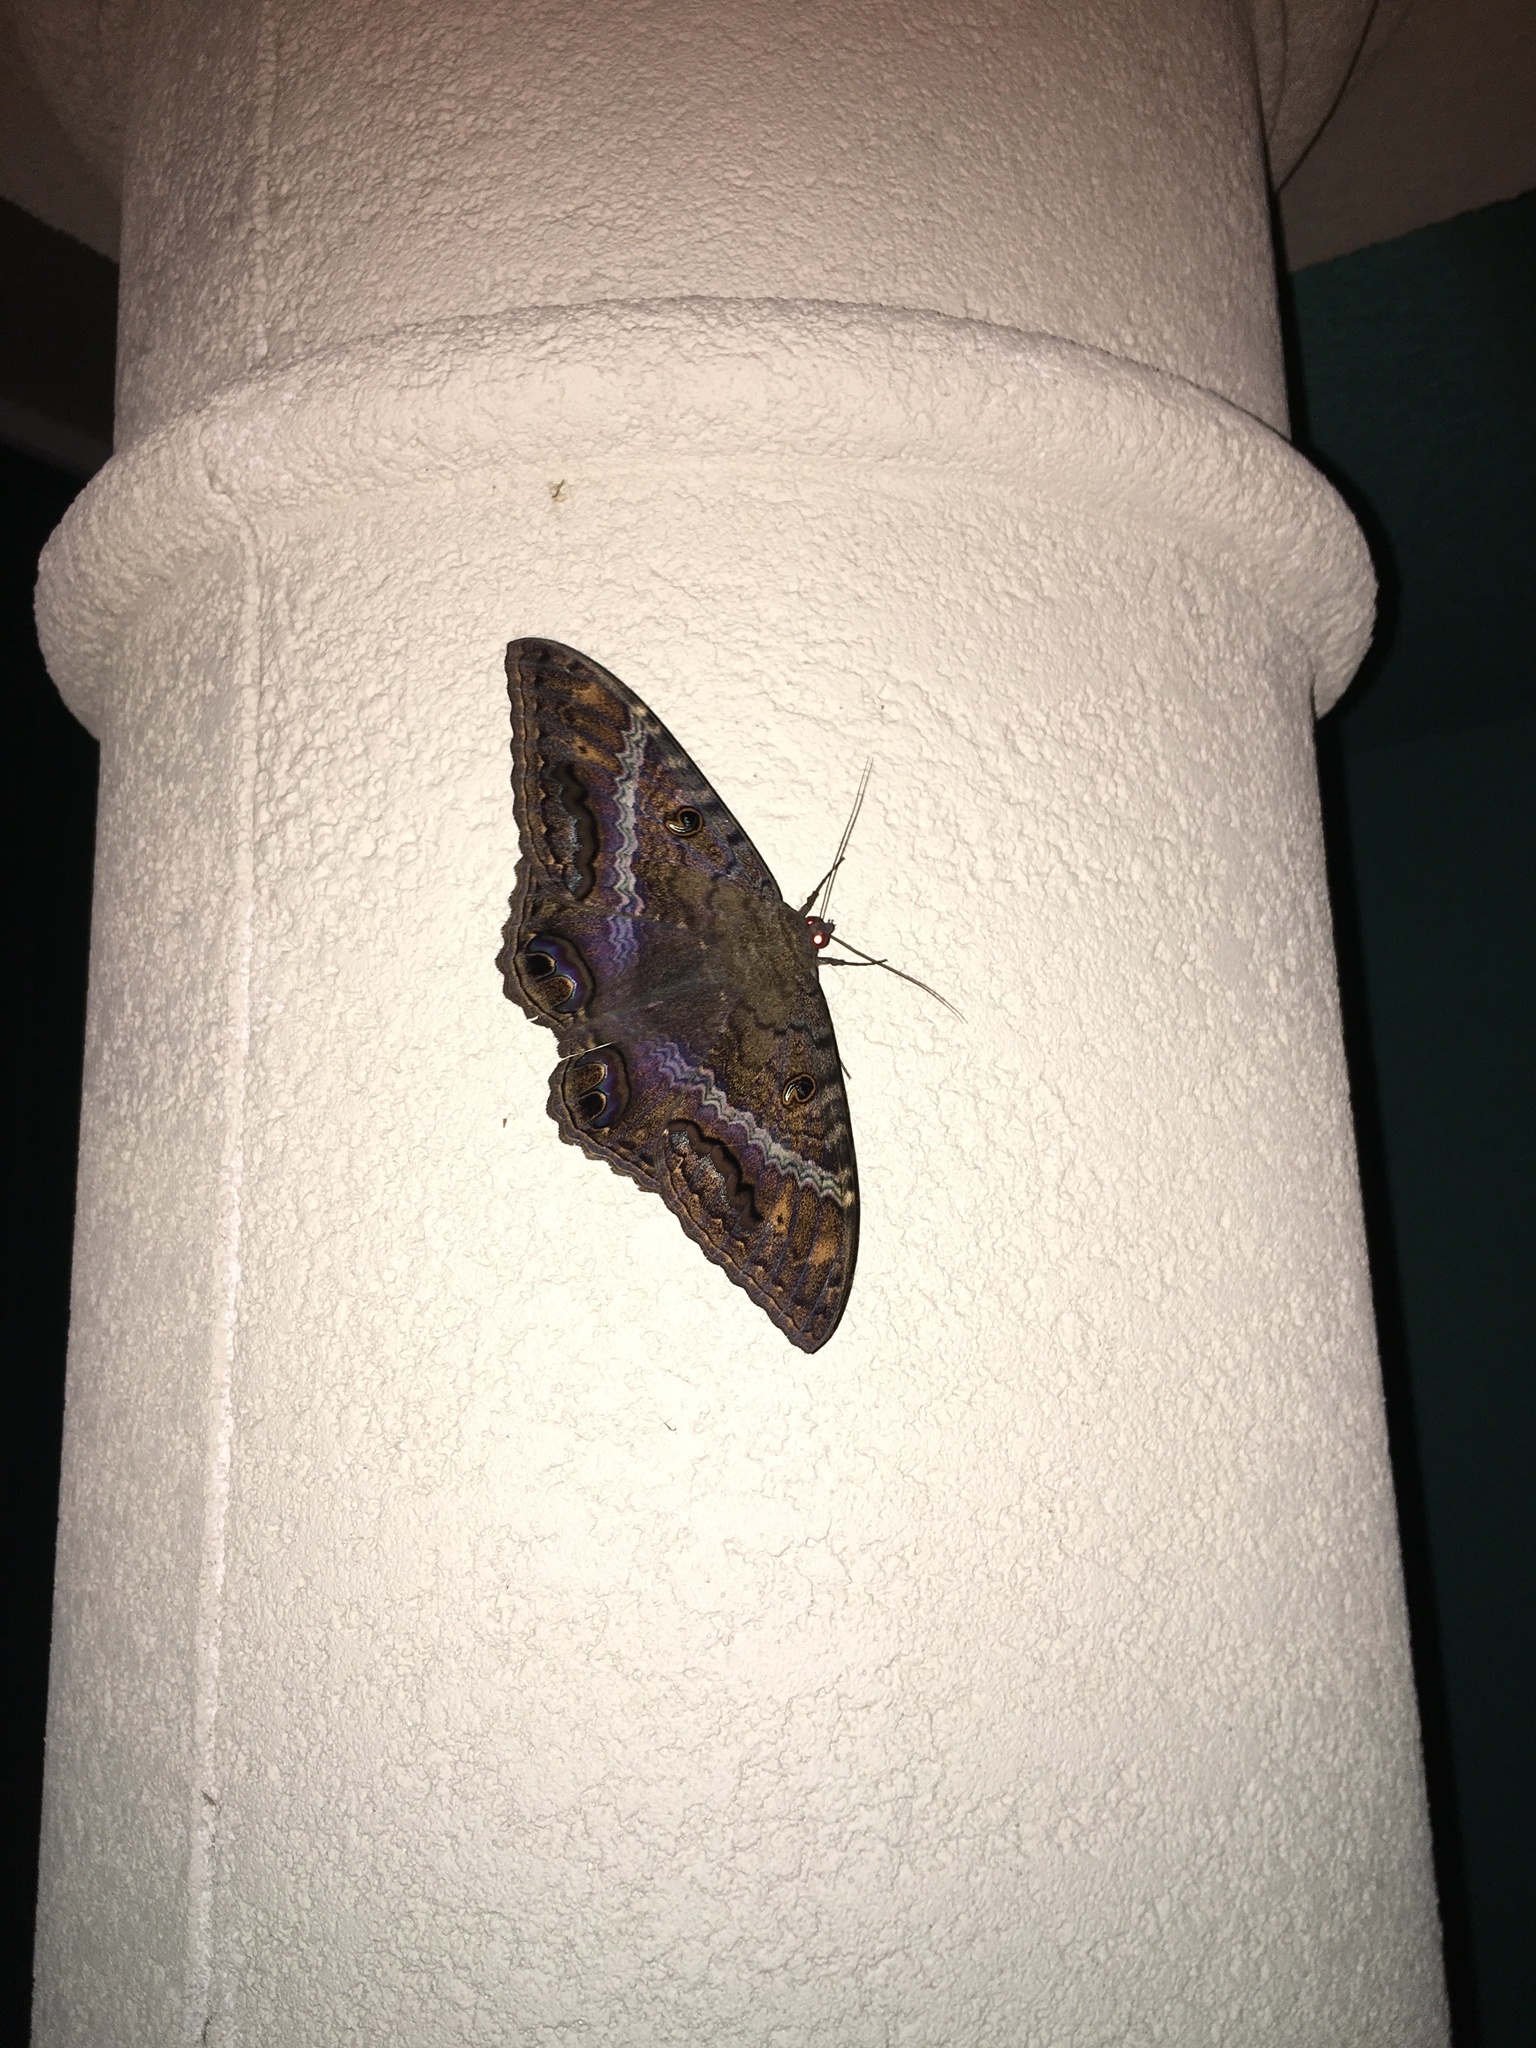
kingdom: Animalia
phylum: Arthropoda
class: Insecta
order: Lepidoptera
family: Erebidae
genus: Ascalapha
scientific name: Ascalapha odorata
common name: Black witch
